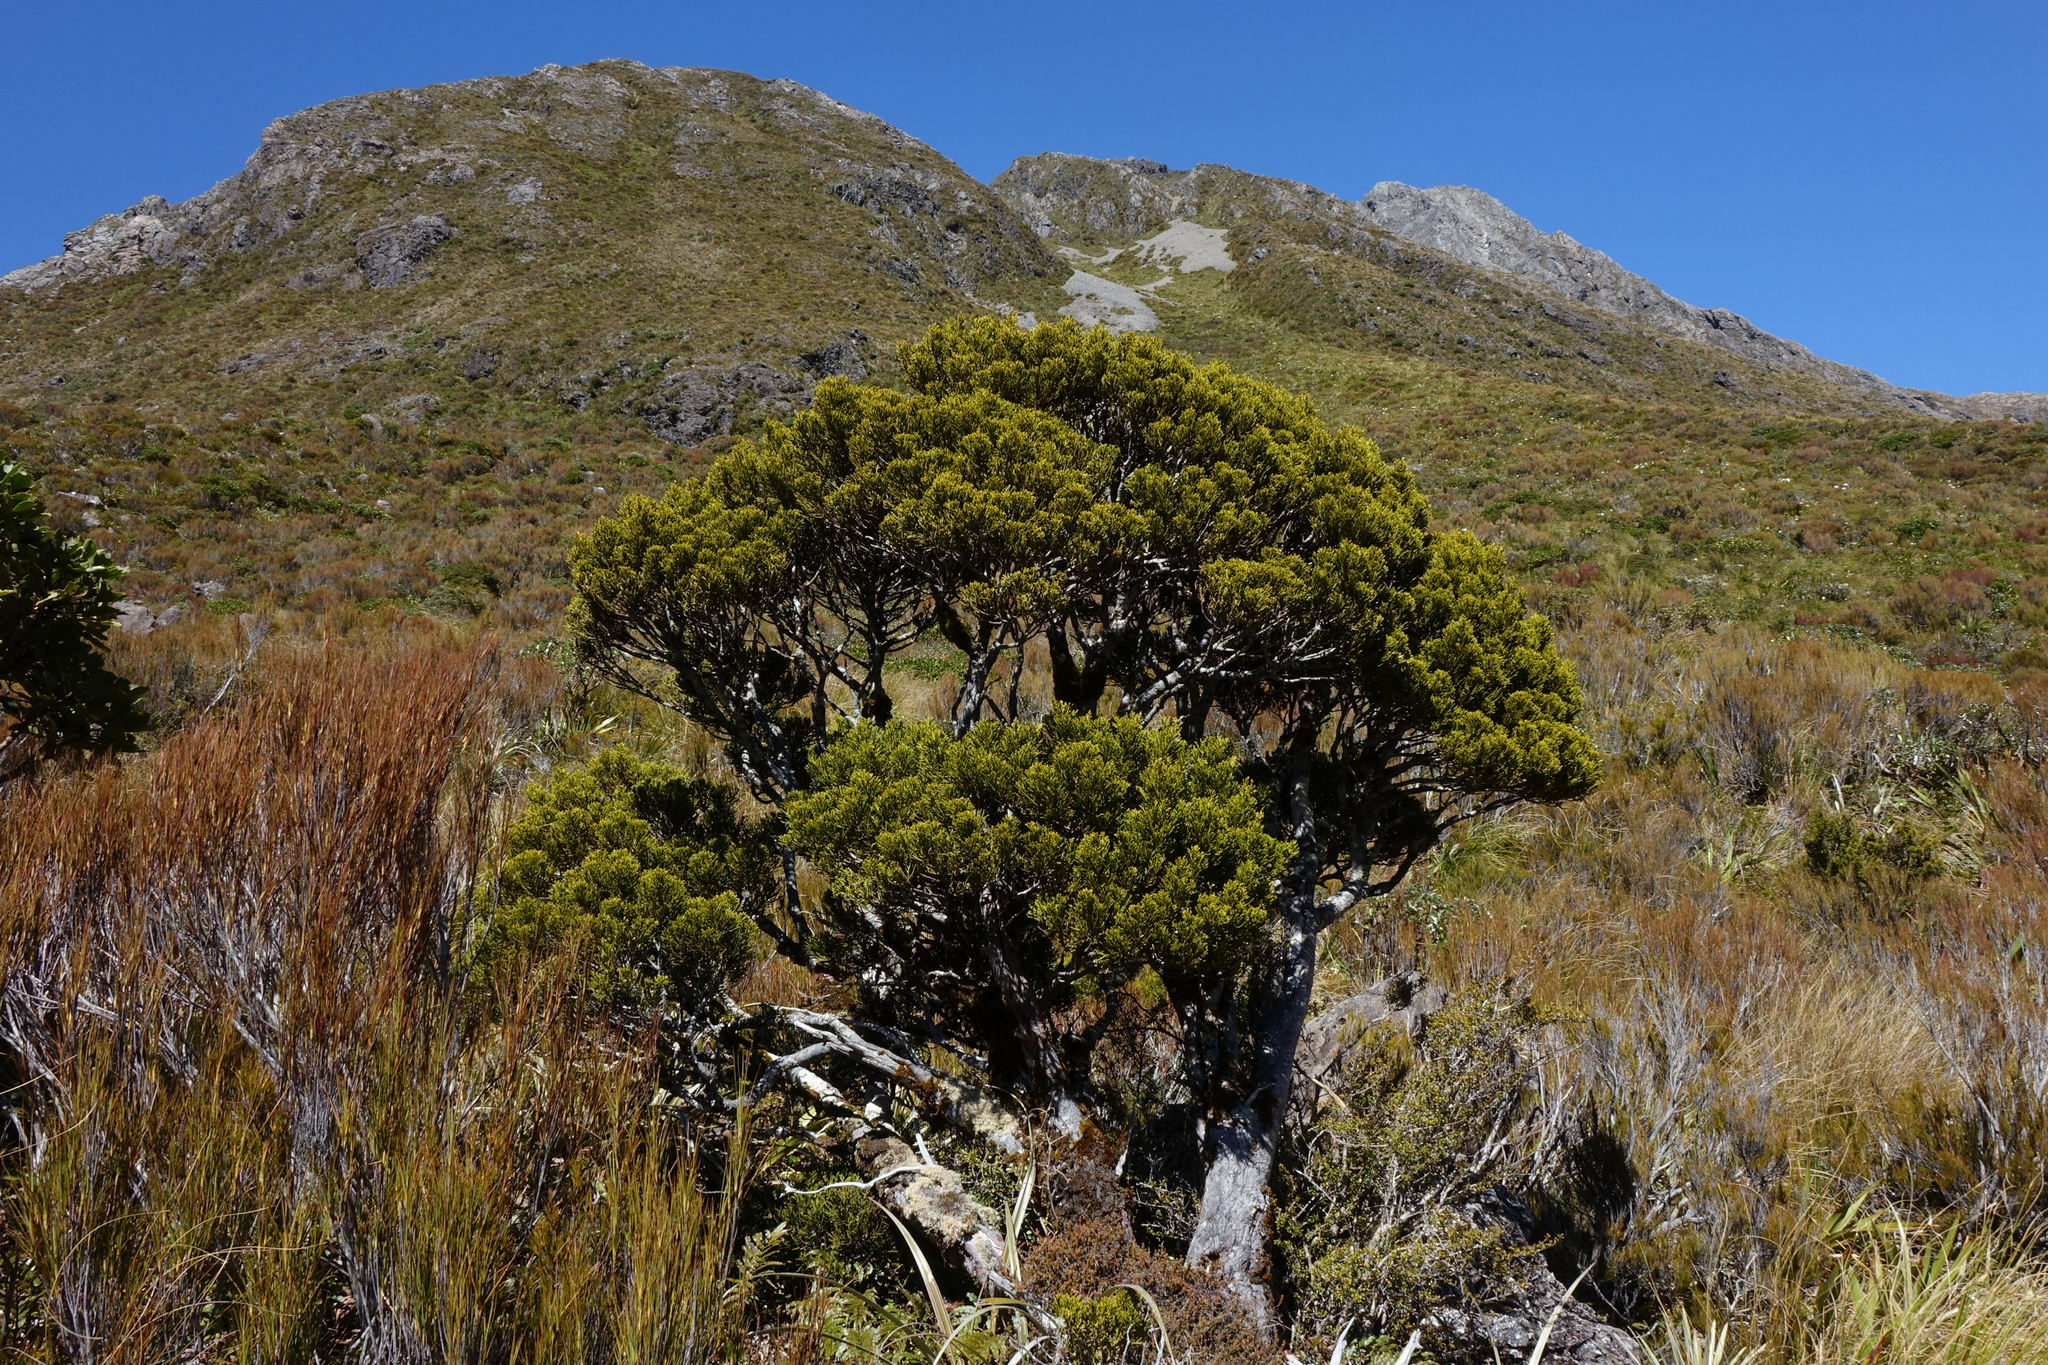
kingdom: Plantae
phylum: Tracheophyta
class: Pinopsida
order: Pinales
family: Podocarpaceae
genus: Halocarpus
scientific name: Halocarpus biformis
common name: Alpine tarwood
